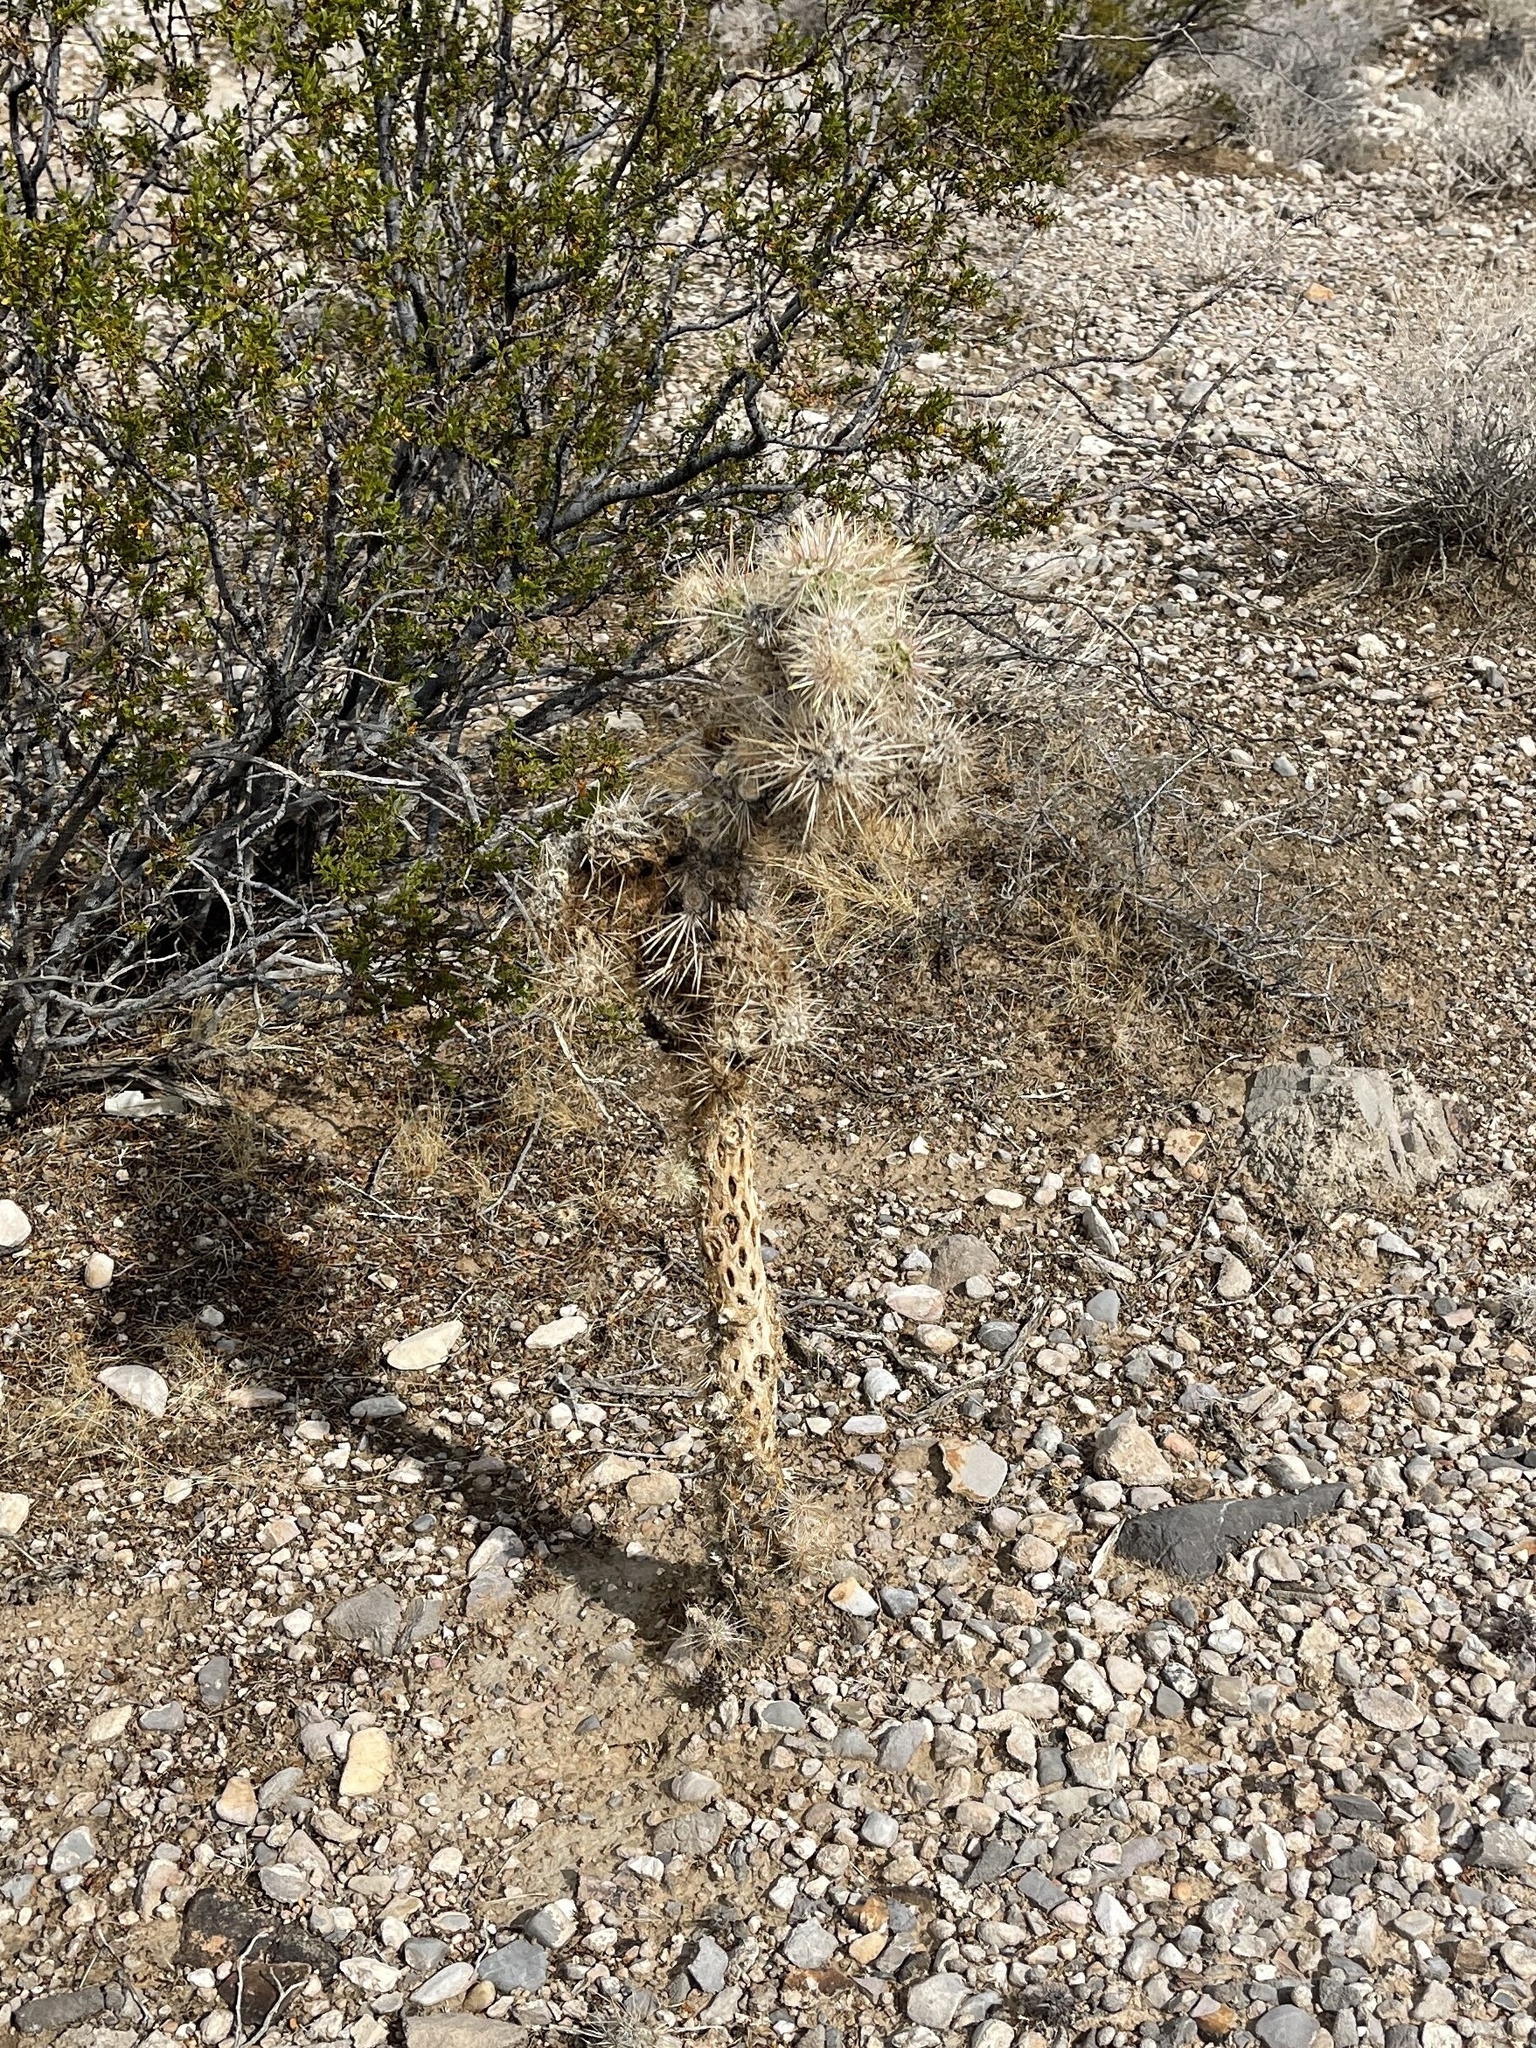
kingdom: Plantae
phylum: Tracheophyta
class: Magnoliopsida
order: Caryophyllales
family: Cactaceae
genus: Cylindropuntia
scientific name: Cylindropuntia echinocarpa
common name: Ground cholla
